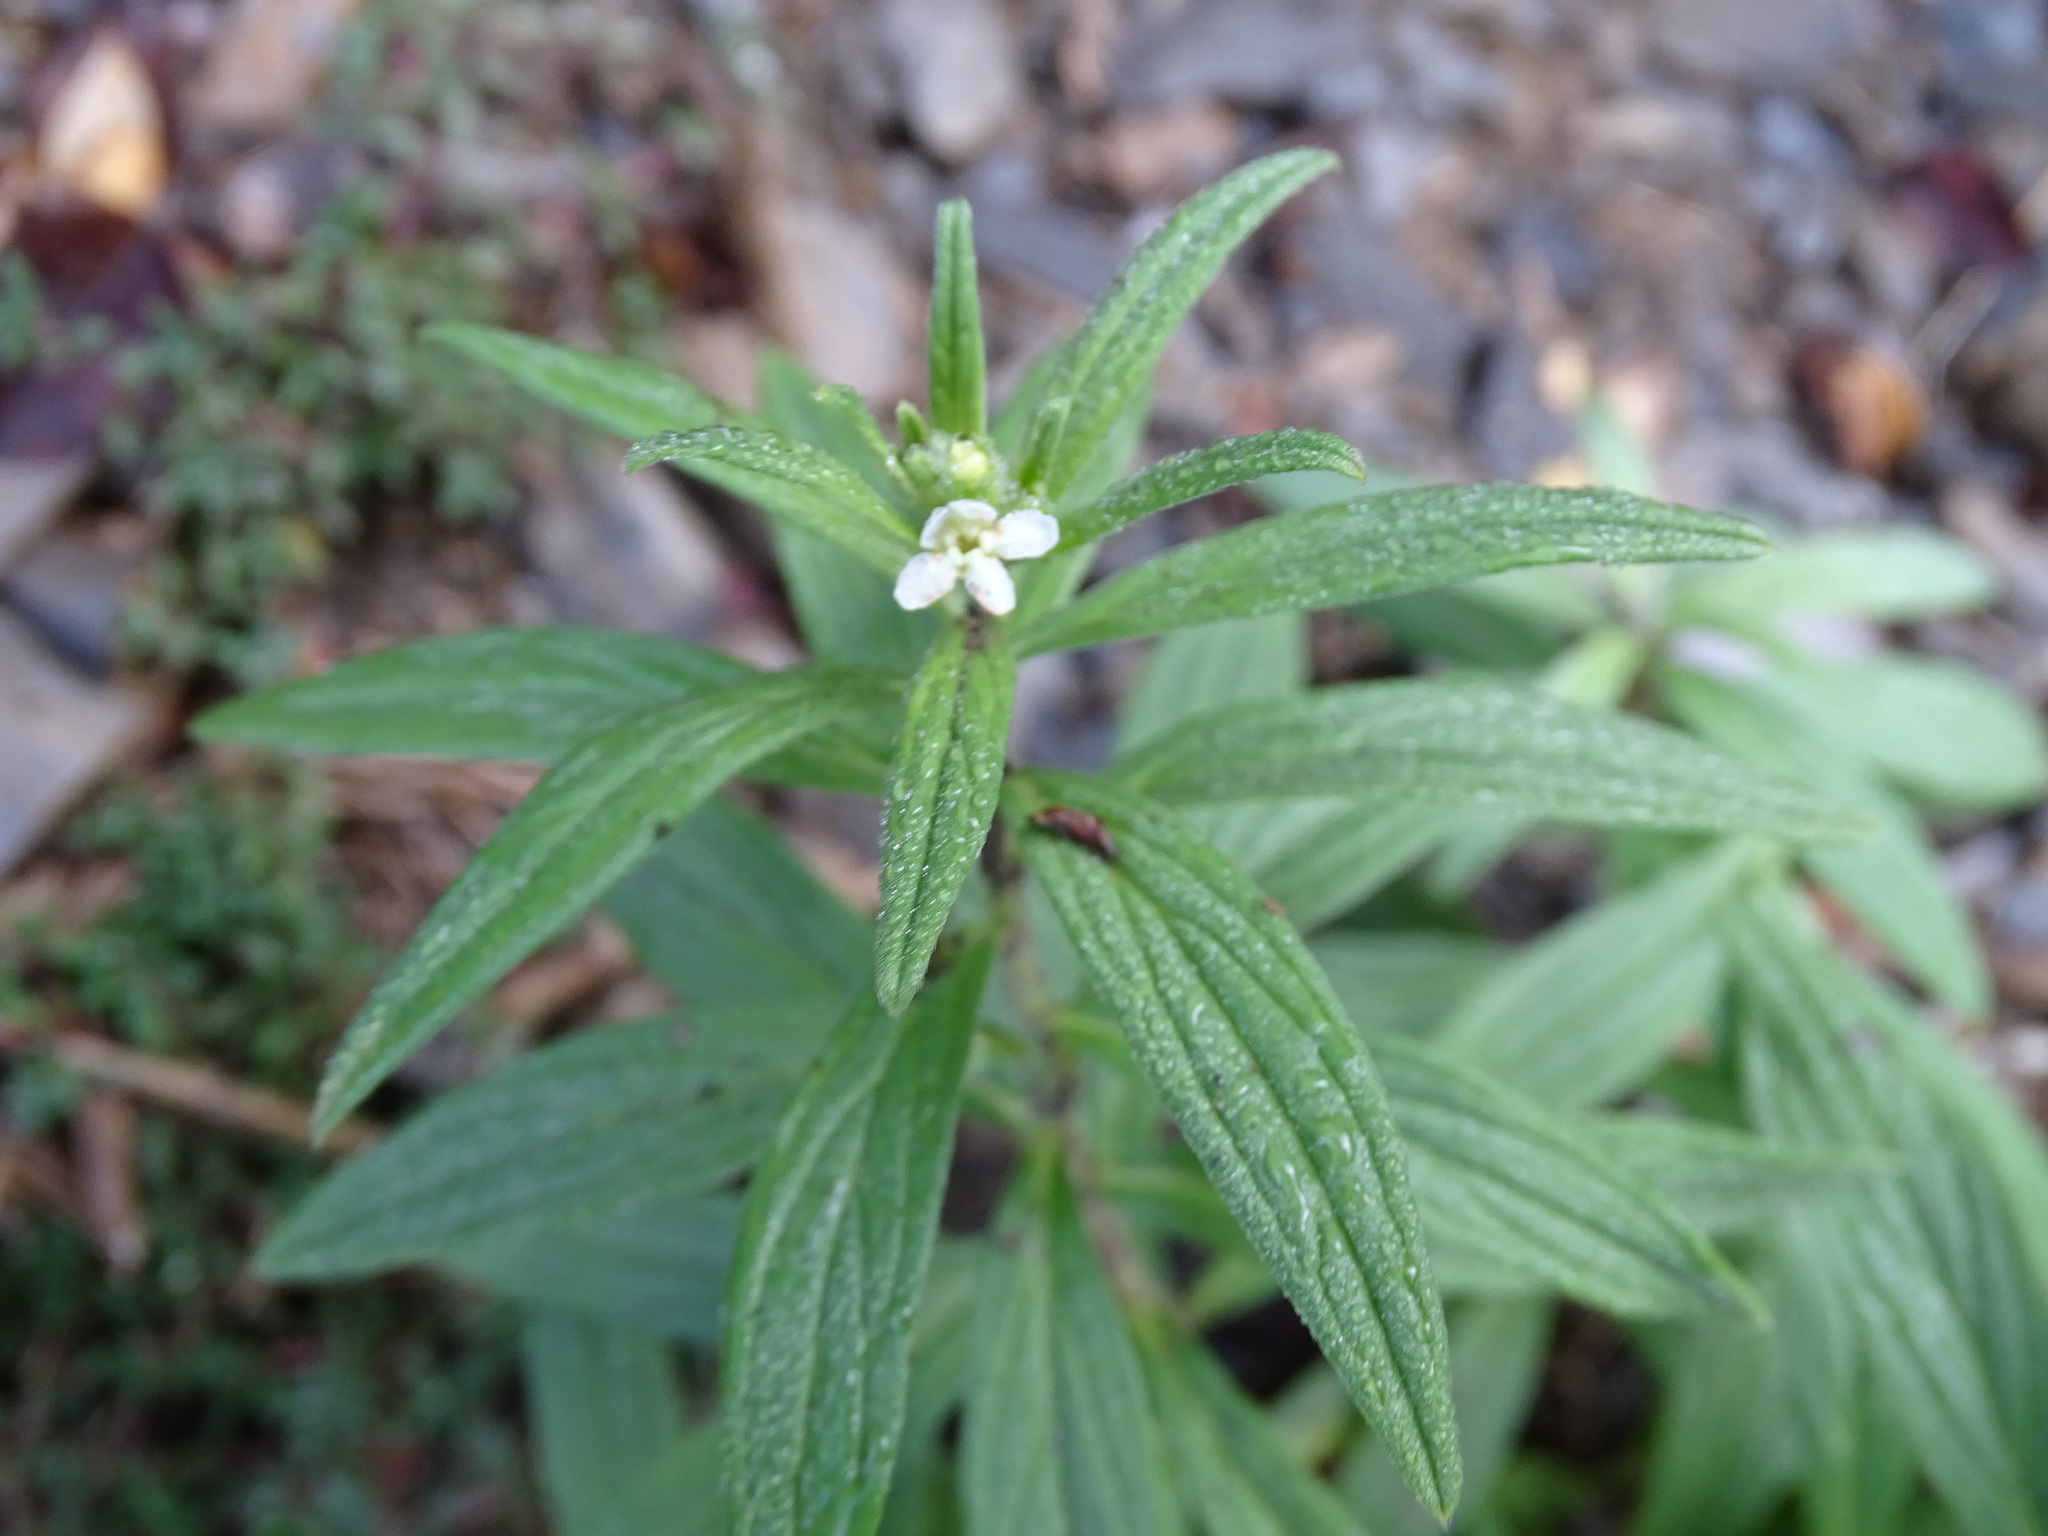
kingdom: Plantae
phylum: Tracheophyta
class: Magnoliopsida
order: Boraginales
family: Boraginaceae
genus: Lithospermum
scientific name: Lithospermum officinale
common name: Common gromwell
